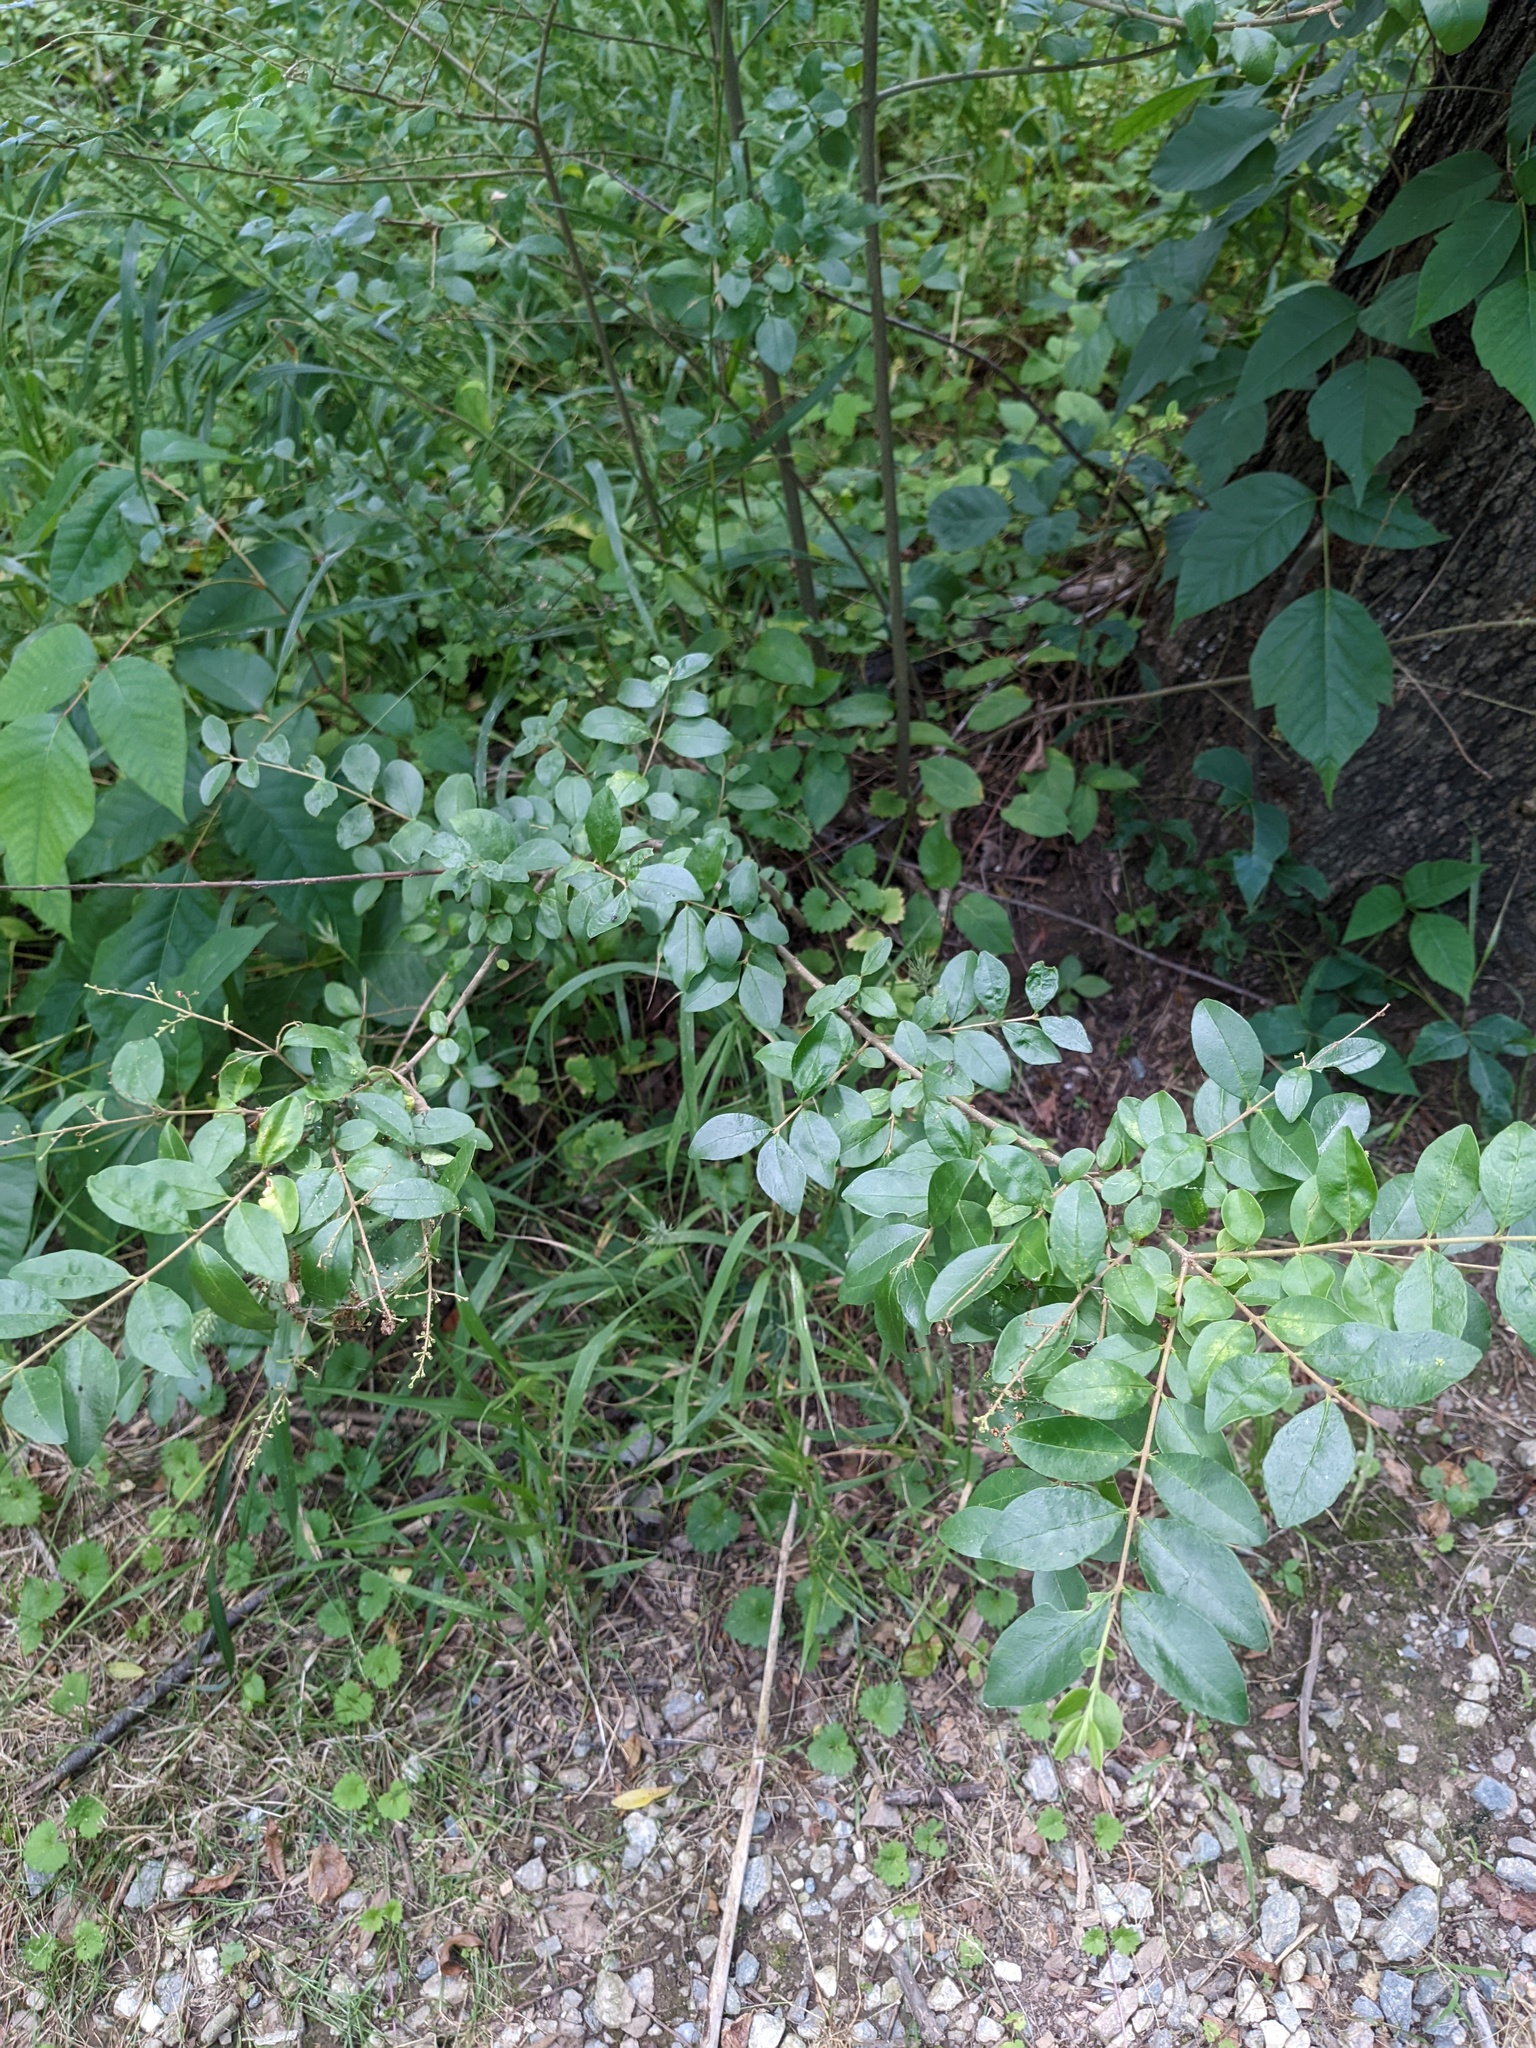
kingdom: Plantae
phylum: Tracheophyta
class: Magnoliopsida
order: Lamiales
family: Oleaceae
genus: Ligustrum
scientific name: Ligustrum sinense
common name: Chinese privet
